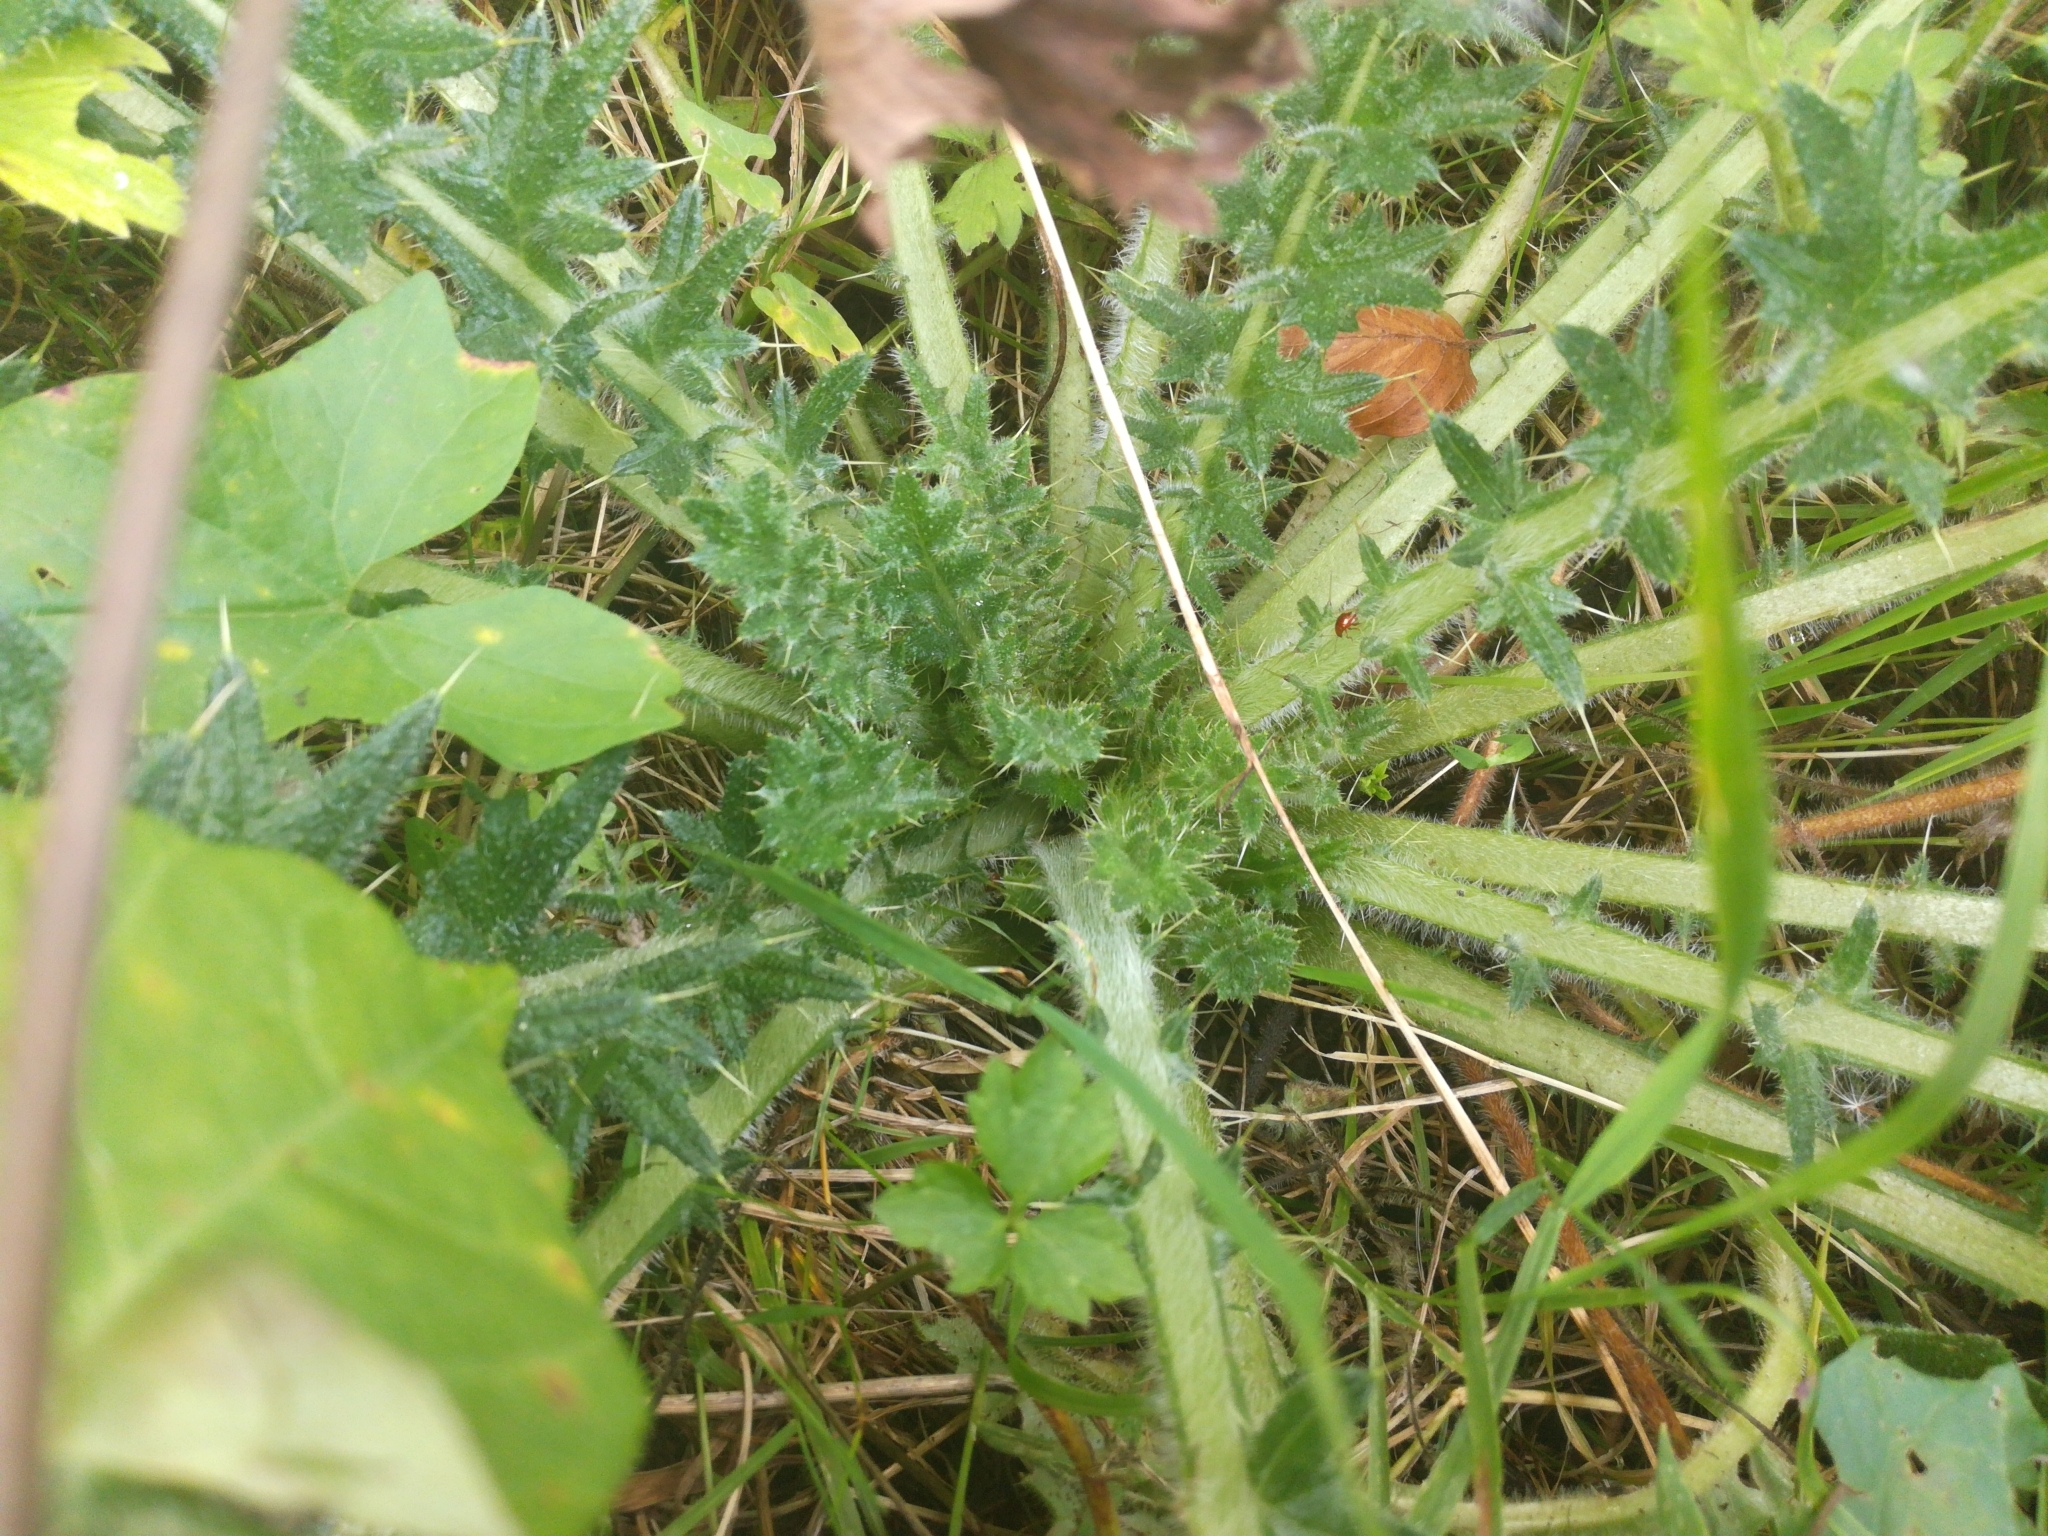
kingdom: Plantae
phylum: Tracheophyta
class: Magnoliopsida
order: Asterales
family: Asteraceae
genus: Cirsium
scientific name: Cirsium vulgare
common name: Bull thistle
